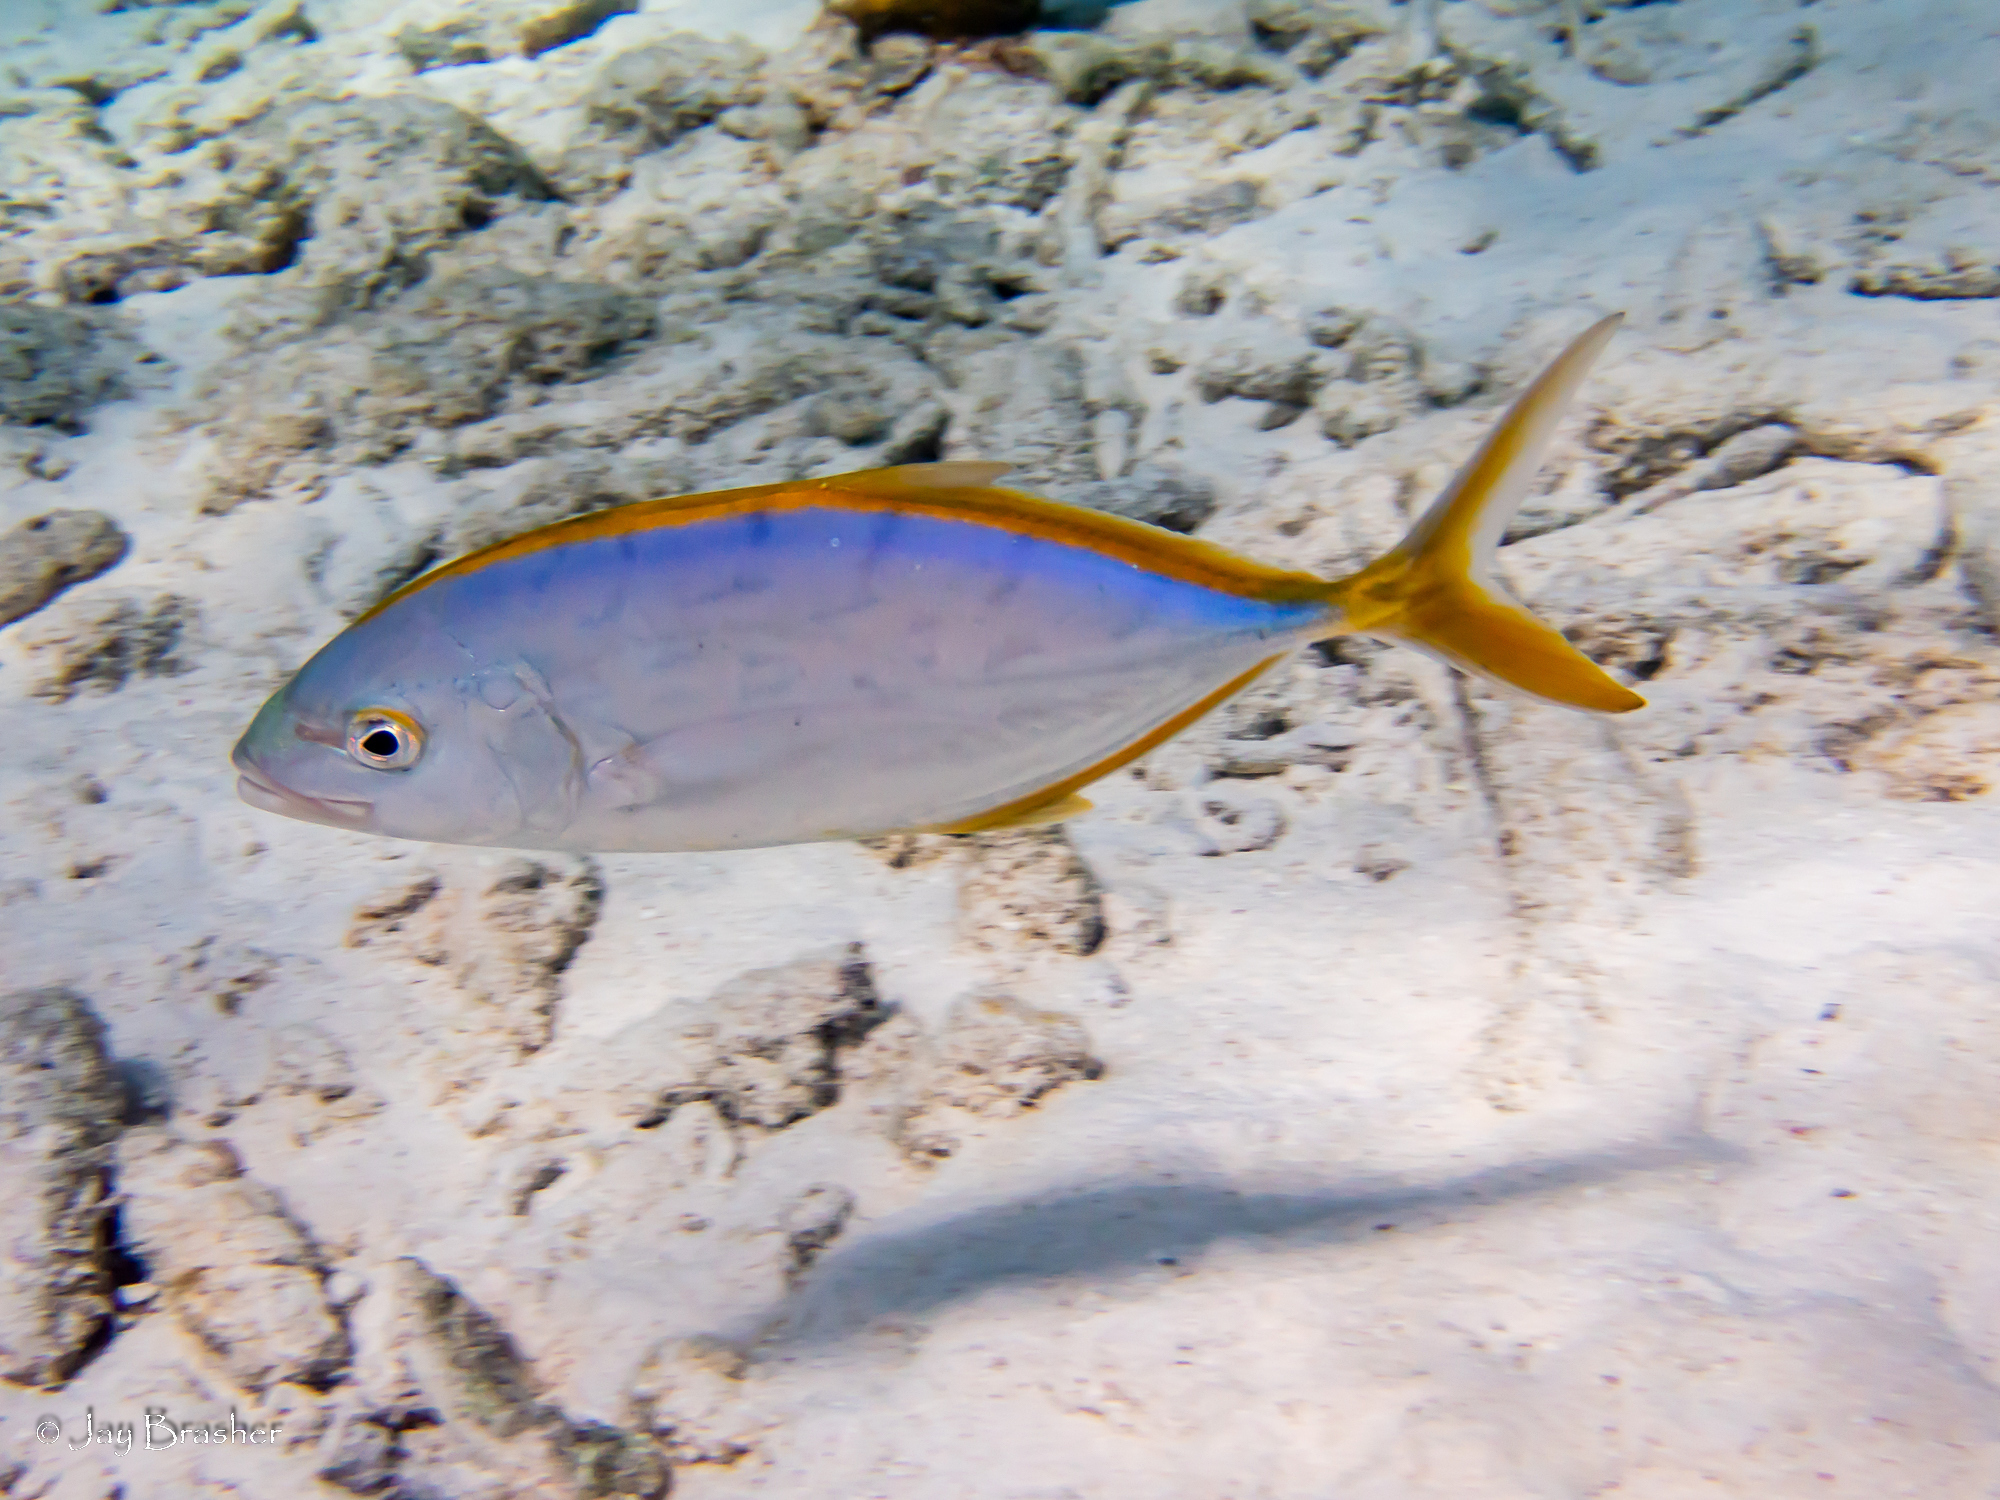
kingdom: Animalia
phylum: Chordata
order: Perciformes
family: Carangidae
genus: Carangoides
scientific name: Carangoides bartholomaei
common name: Yellow jack
